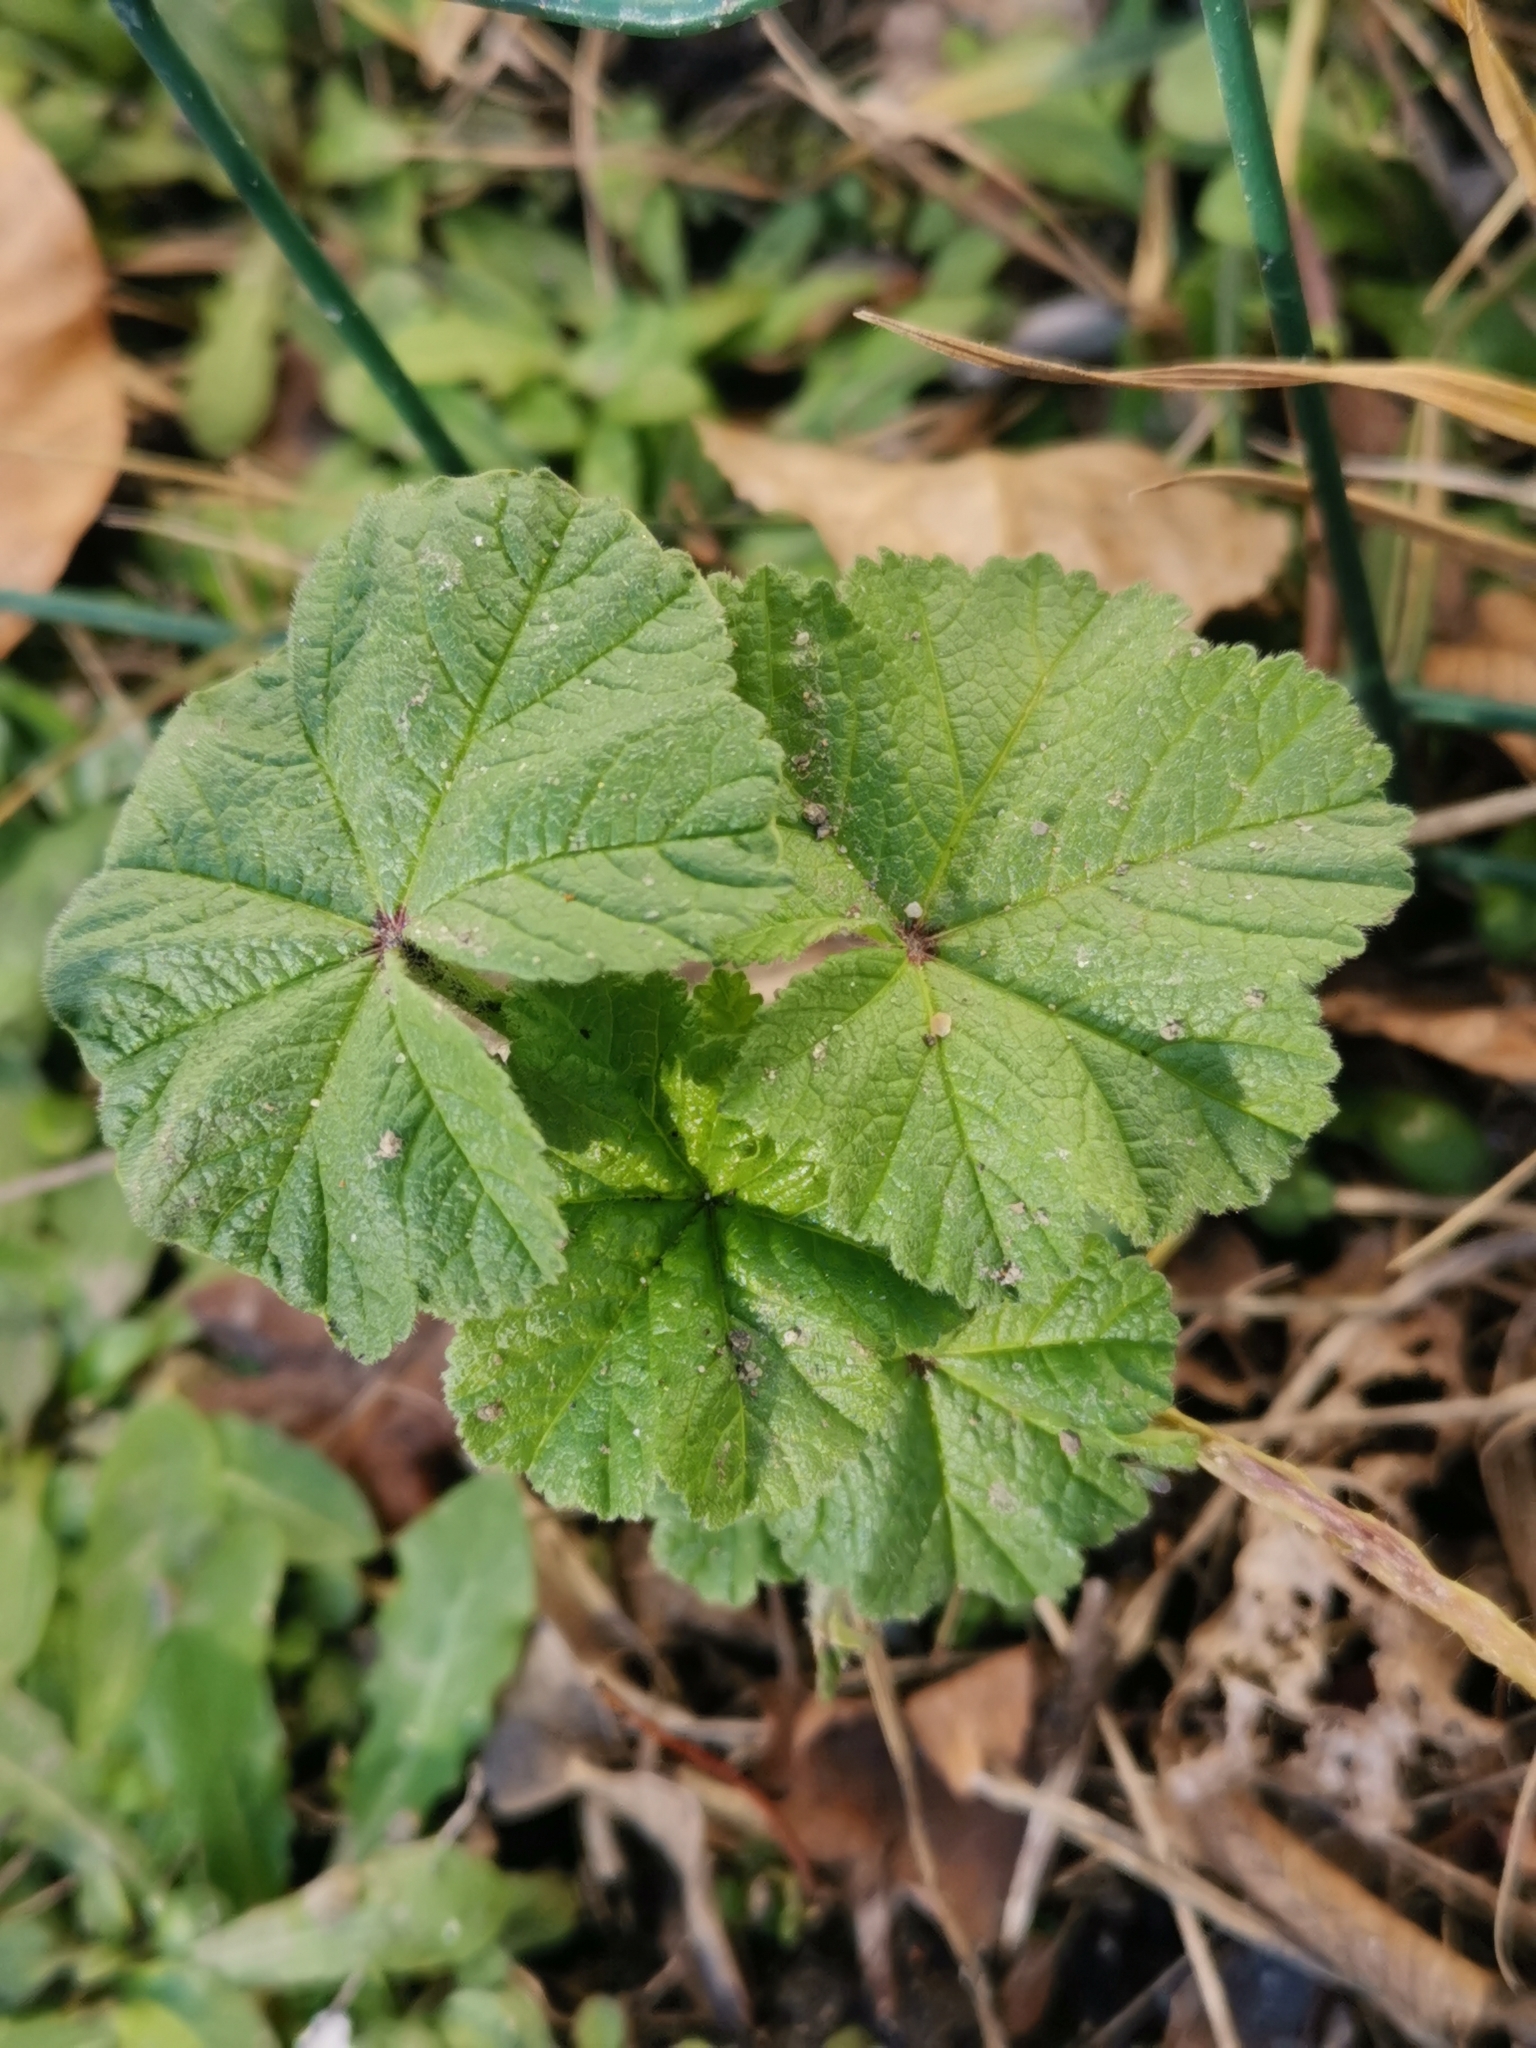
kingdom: Plantae
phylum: Tracheophyta
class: Magnoliopsida
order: Malvales
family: Malvaceae
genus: Malva
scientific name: Malva sylvestris
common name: Common mallow
